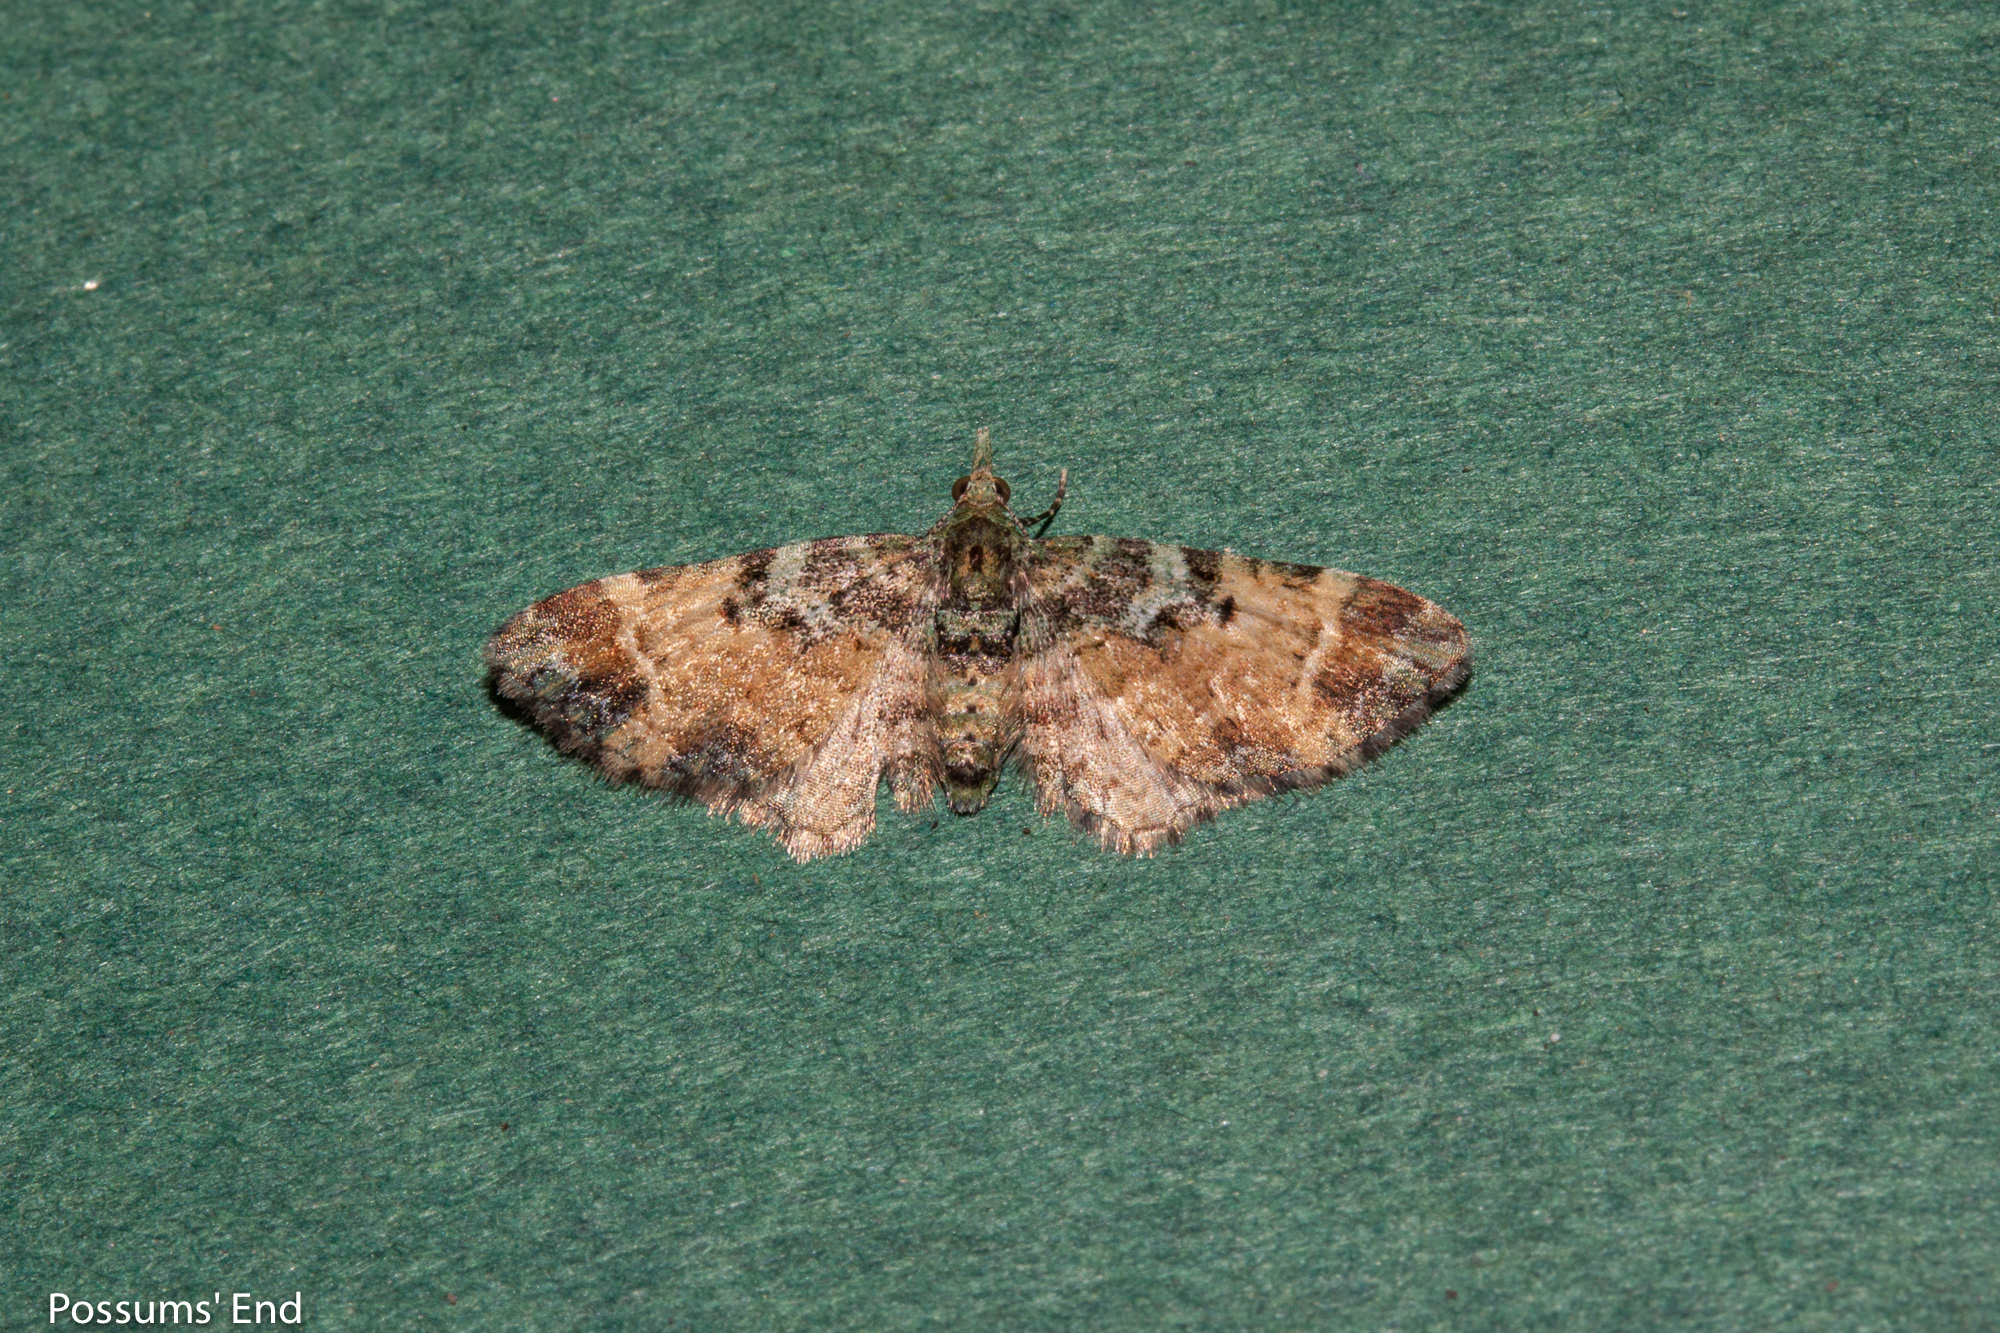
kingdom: Animalia
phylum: Arthropoda
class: Insecta
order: Lepidoptera
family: Geometridae
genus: Pasiphila
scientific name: Pasiphila sandycias
